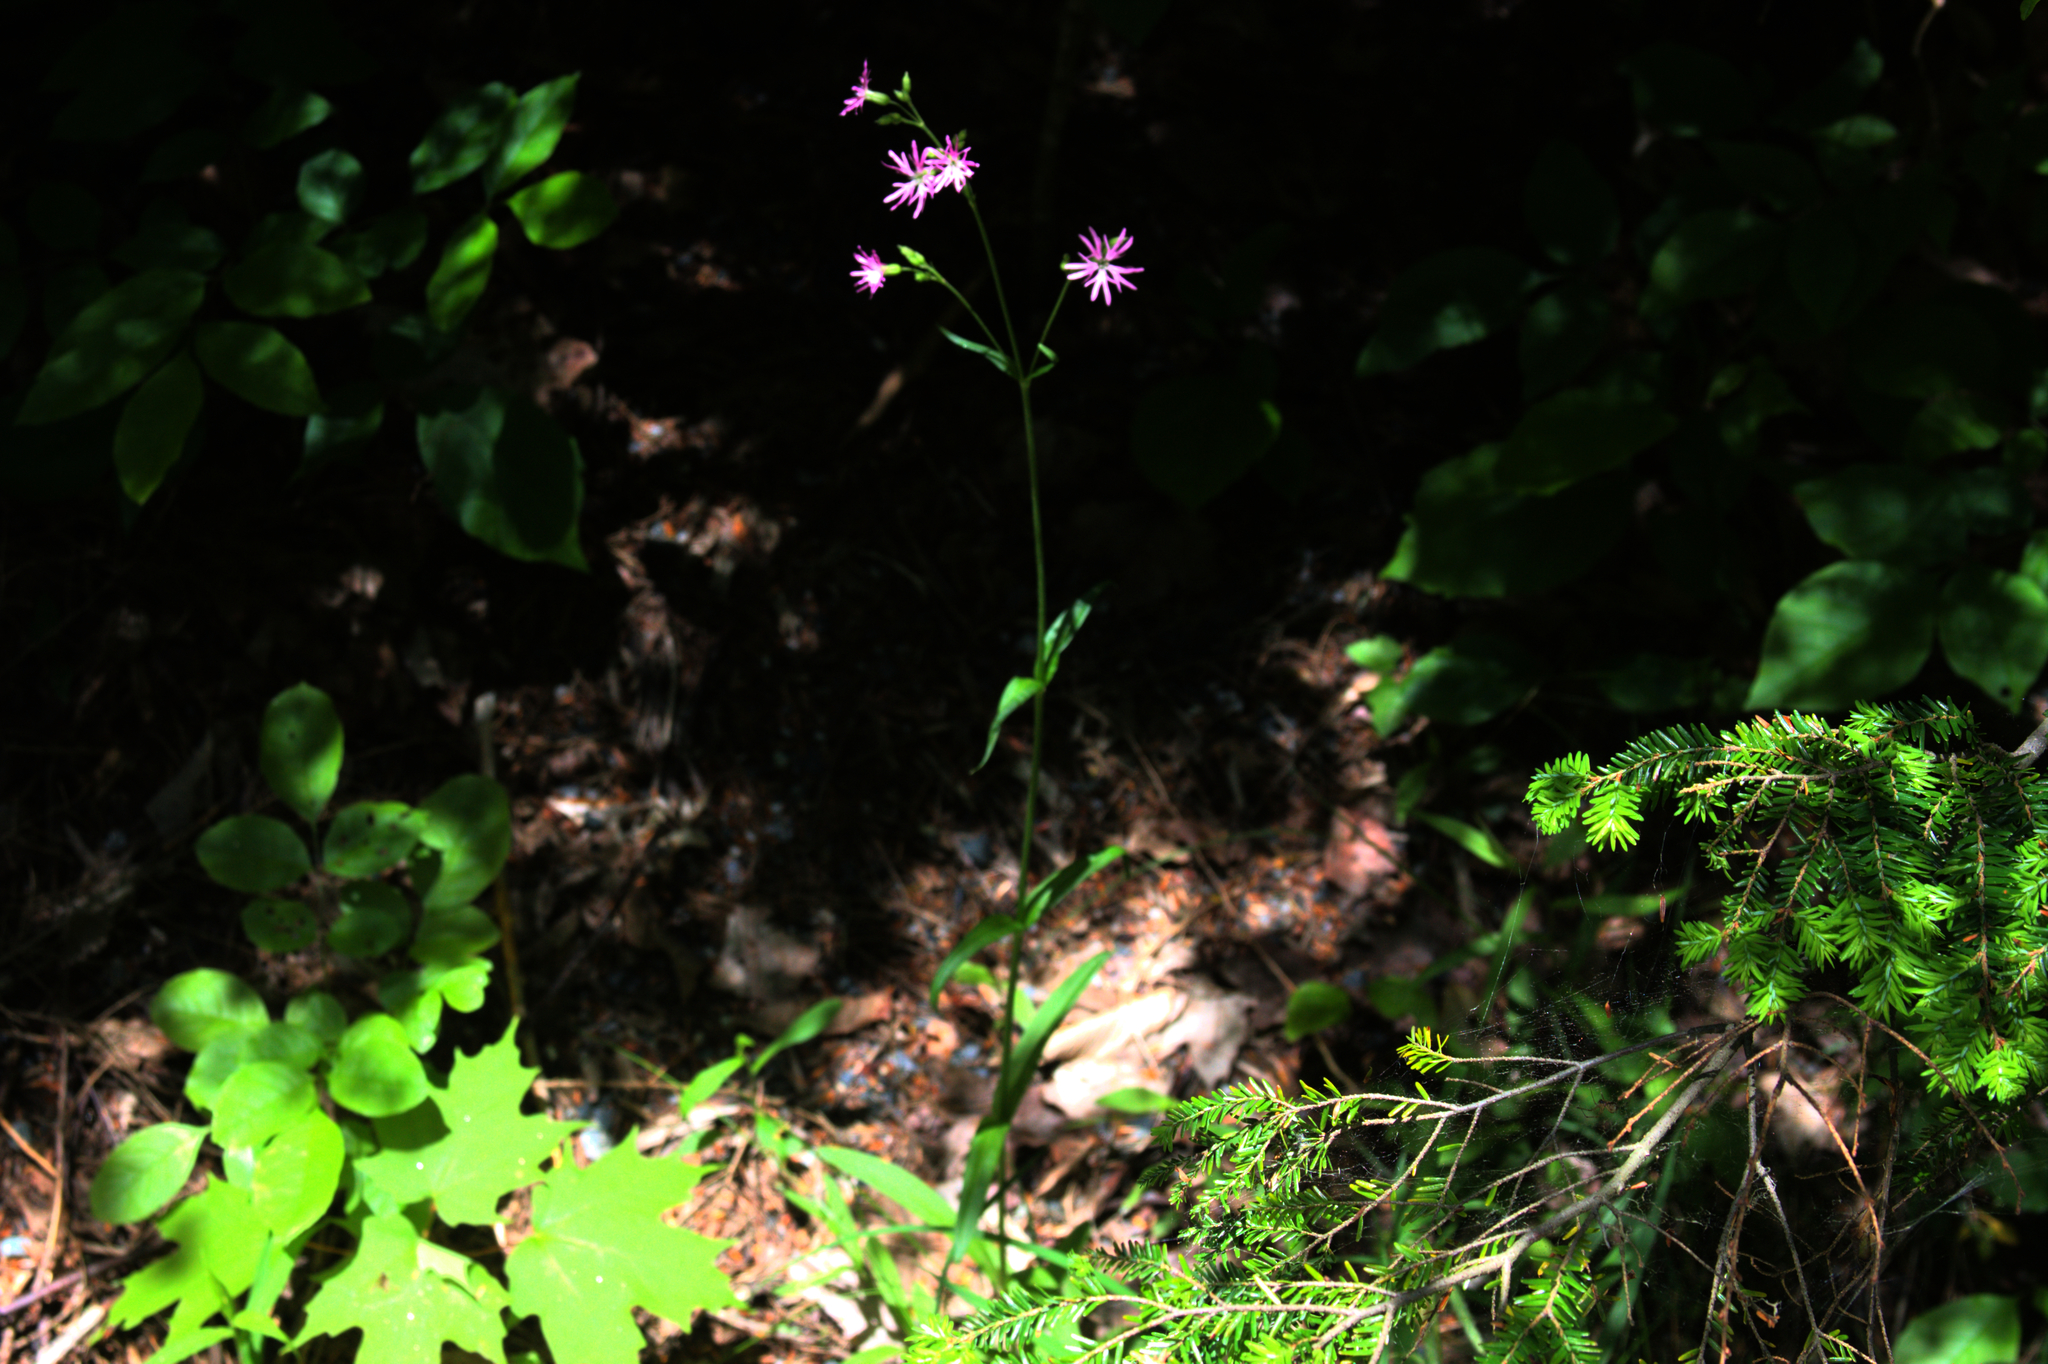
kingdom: Plantae
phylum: Tracheophyta
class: Magnoliopsida
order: Caryophyllales
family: Caryophyllaceae
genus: Silene
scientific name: Silene flos-cuculi
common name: Ragged-robin
